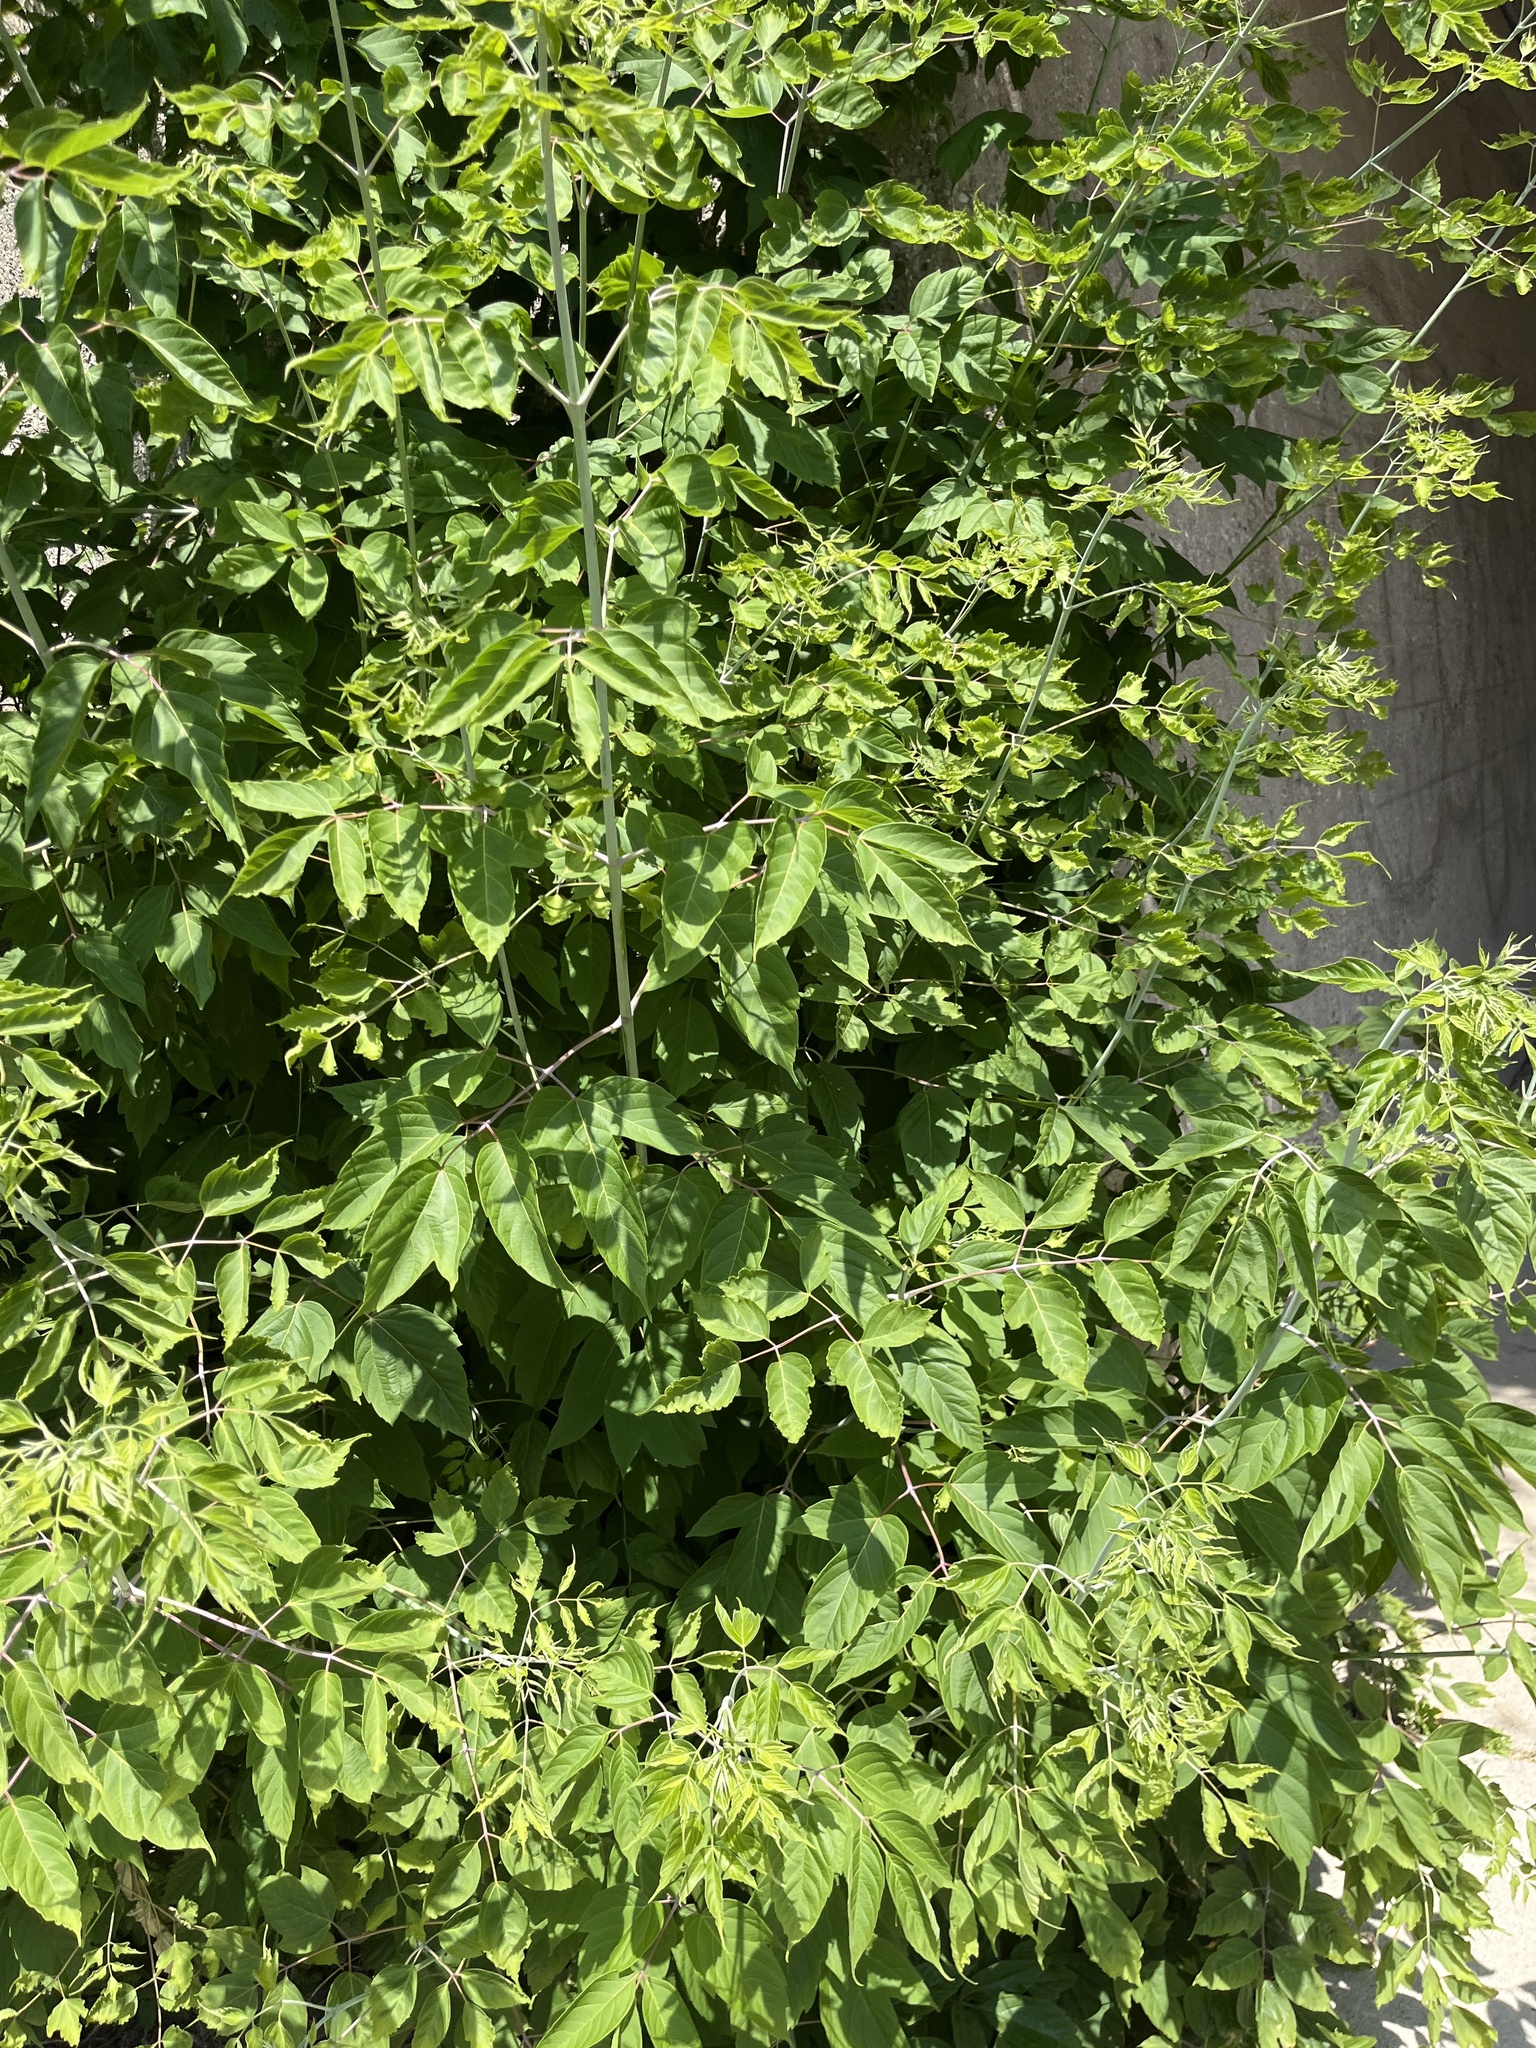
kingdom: Plantae
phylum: Tracheophyta
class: Magnoliopsida
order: Sapindales
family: Sapindaceae
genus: Acer
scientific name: Acer negundo
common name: Ashleaf maple
